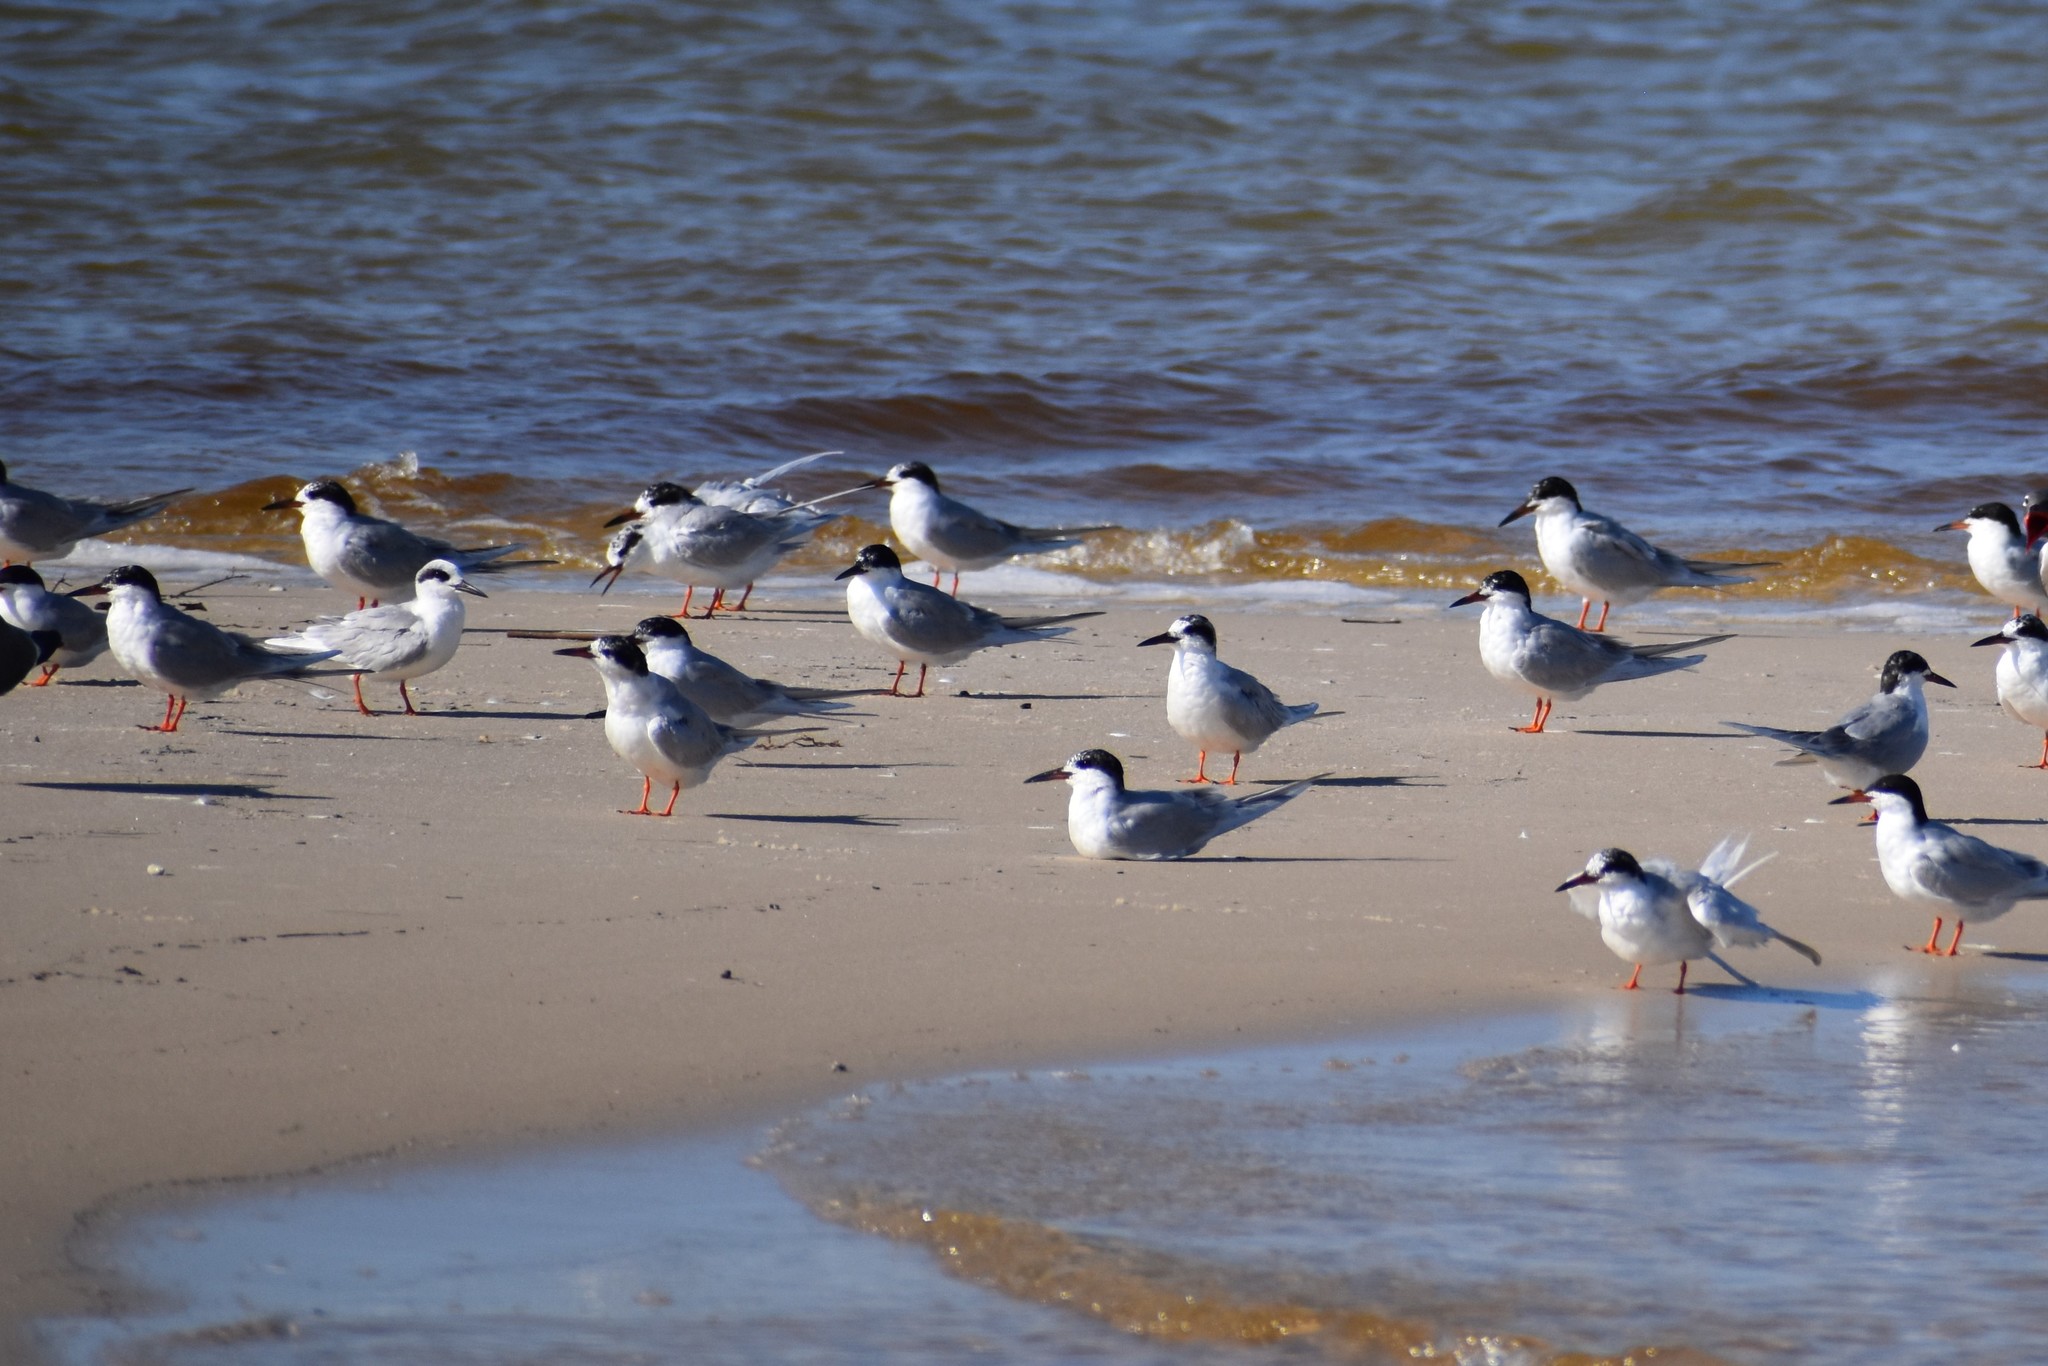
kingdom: Animalia
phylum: Chordata
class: Aves
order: Charadriiformes
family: Laridae
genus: Sterna
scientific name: Sterna forsteri
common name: Forster's tern
